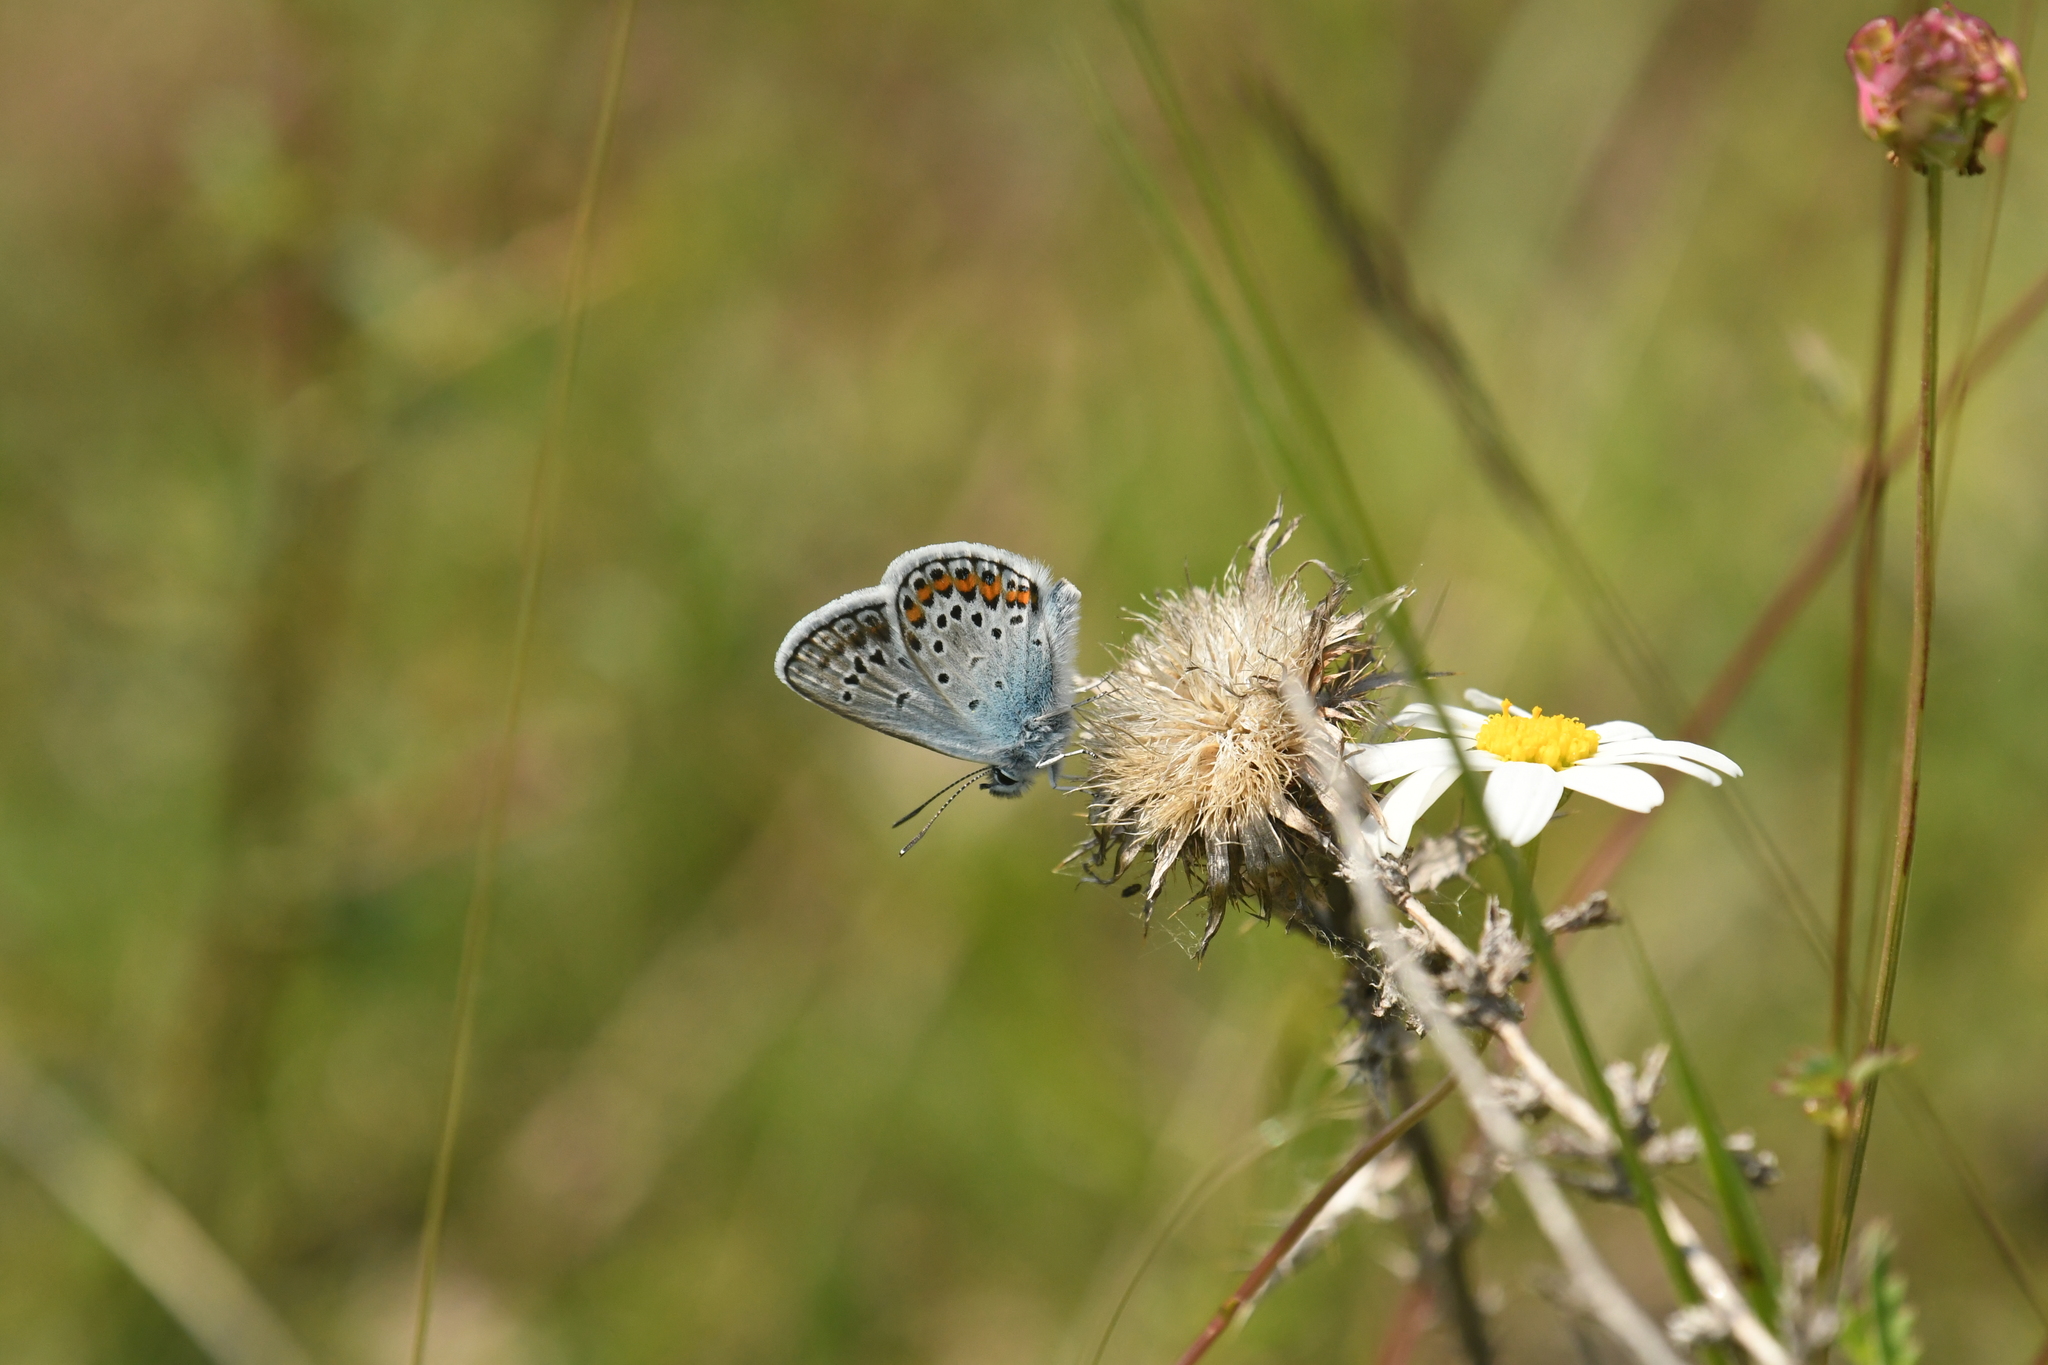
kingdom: Animalia
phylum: Arthropoda
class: Insecta
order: Lepidoptera
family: Lycaenidae
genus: Plebejus
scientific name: Plebejus argus
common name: Silver-studded blue
